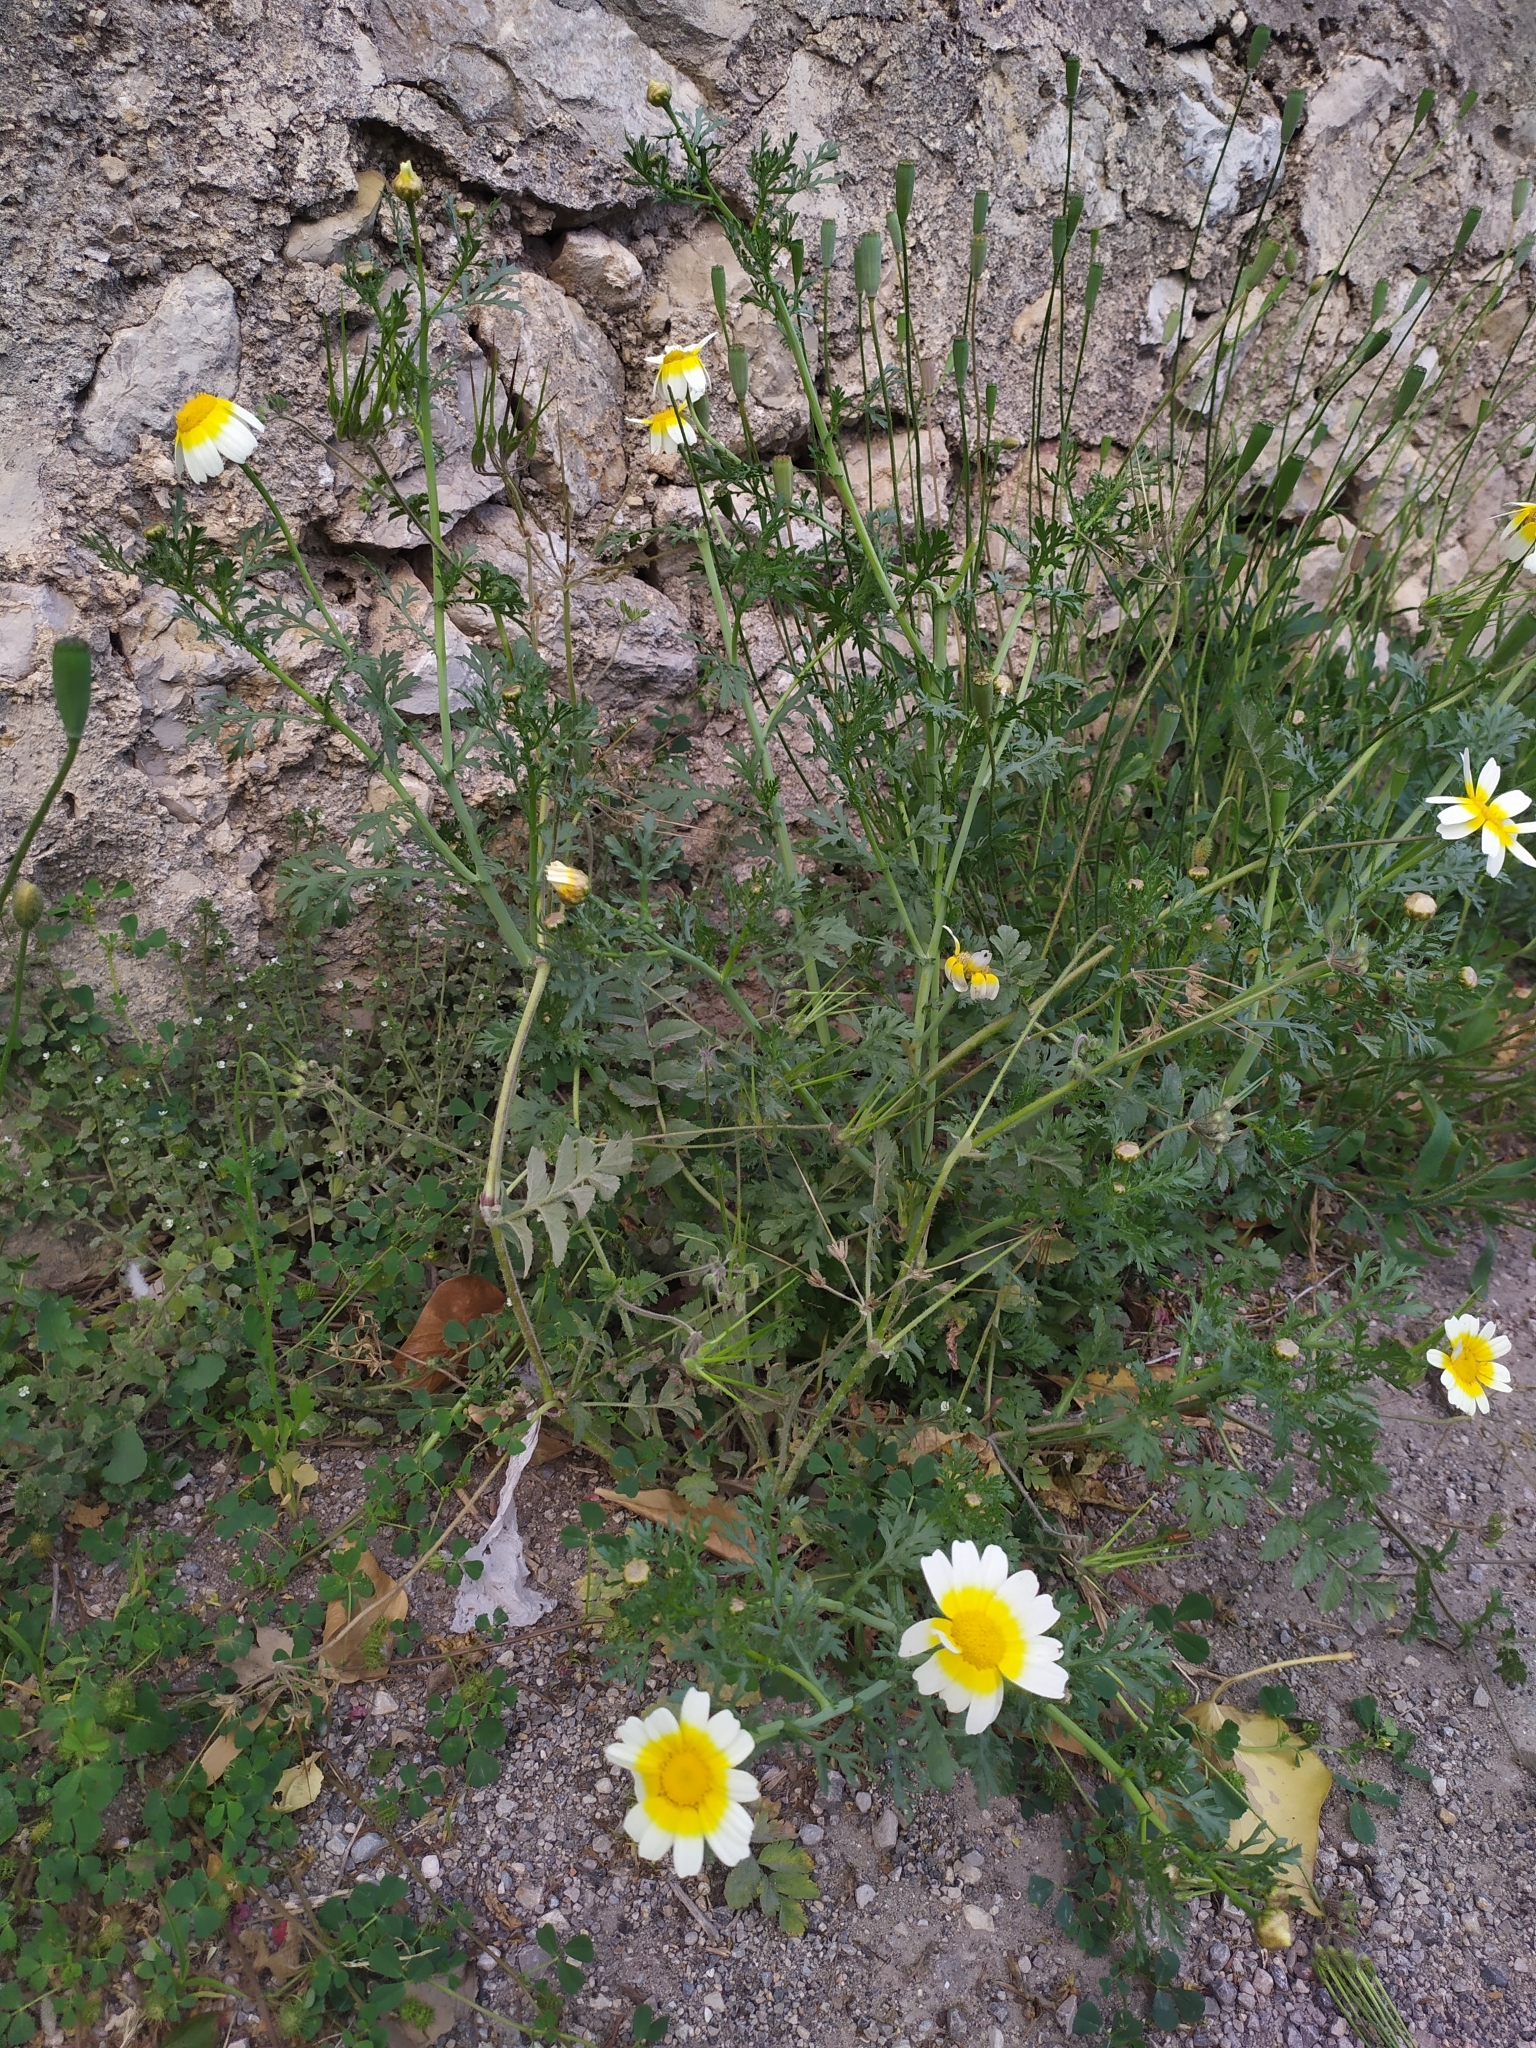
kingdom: Plantae
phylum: Tracheophyta
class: Magnoliopsida
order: Asterales
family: Asteraceae
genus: Glebionis
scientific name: Glebionis coronaria
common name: Crowndaisy
